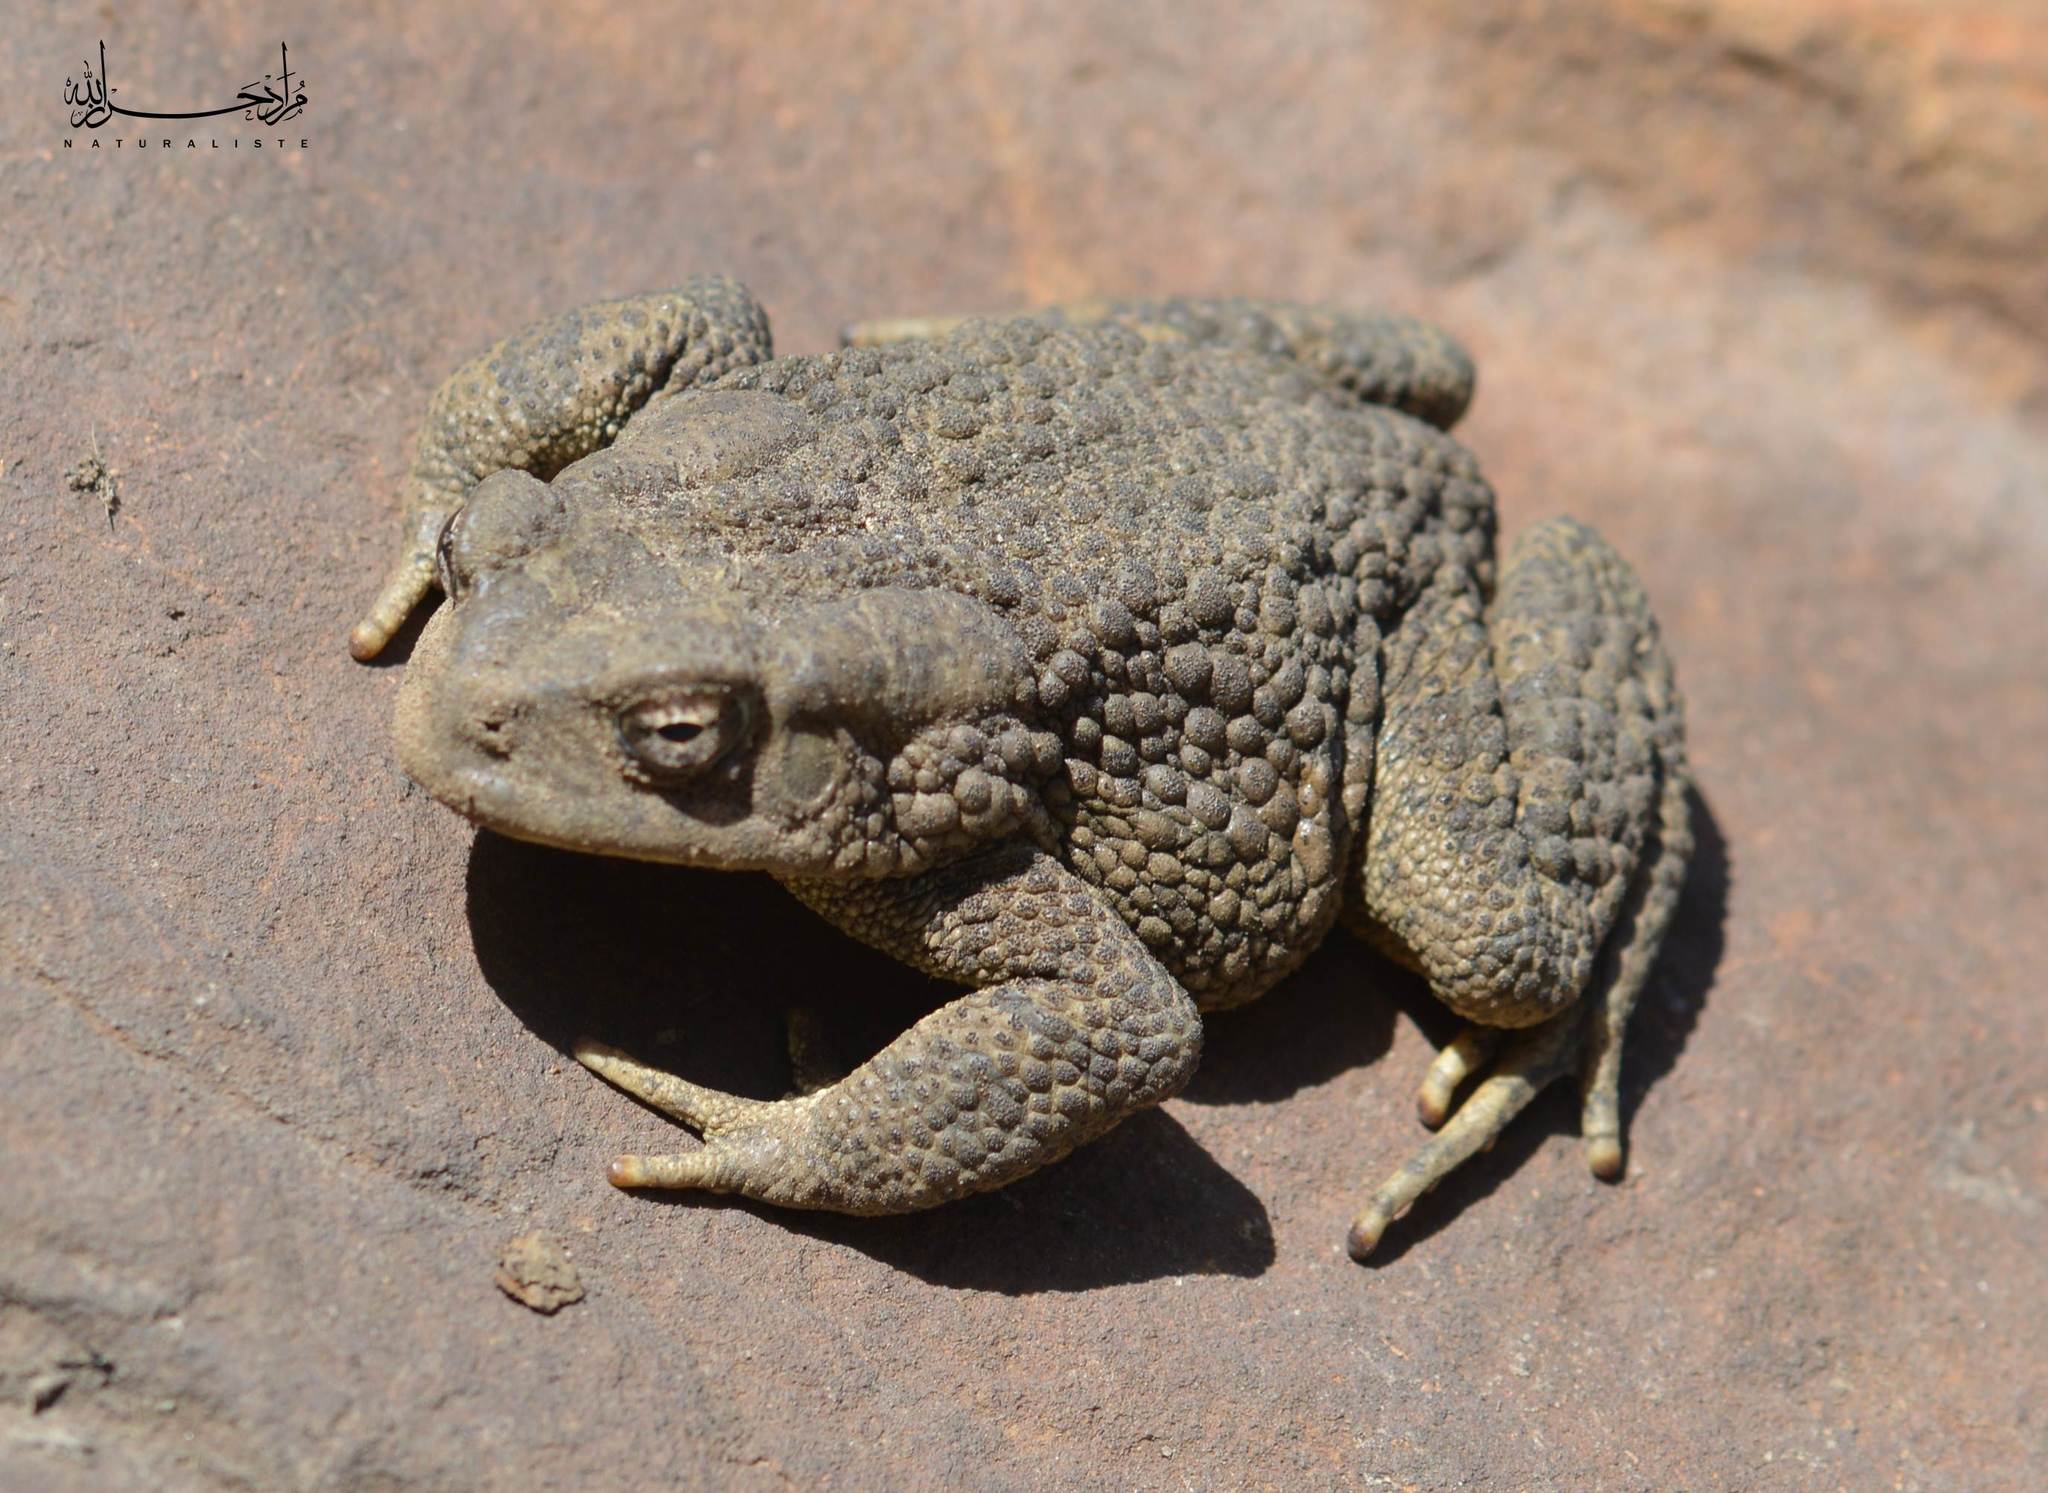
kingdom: Animalia
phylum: Chordata
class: Amphibia
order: Anura
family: Bufonidae
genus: Sclerophrys
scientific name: Sclerophrys mauritanica
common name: Berber toad
